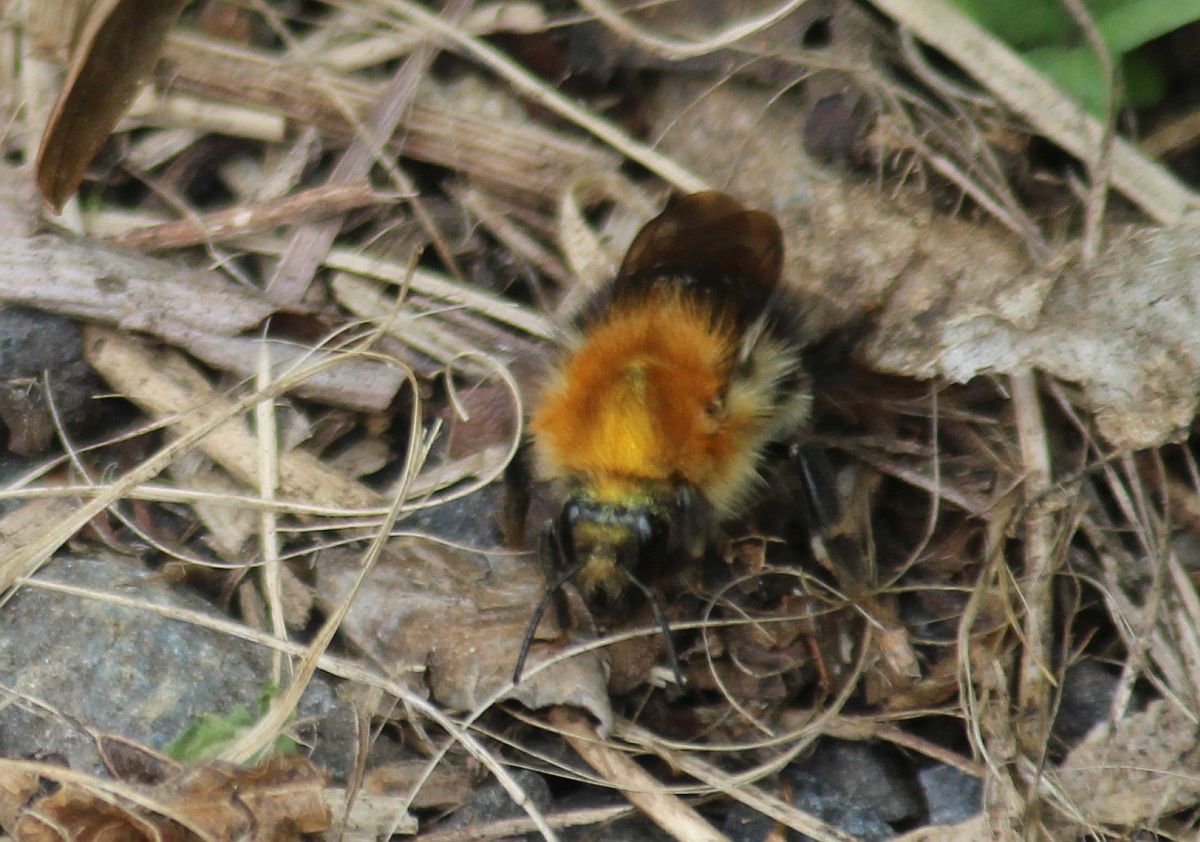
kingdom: Animalia
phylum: Arthropoda
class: Insecta
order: Hymenoptera
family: Apidae
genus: Bombus
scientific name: Bombus pascuorum
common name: Common carder bee
